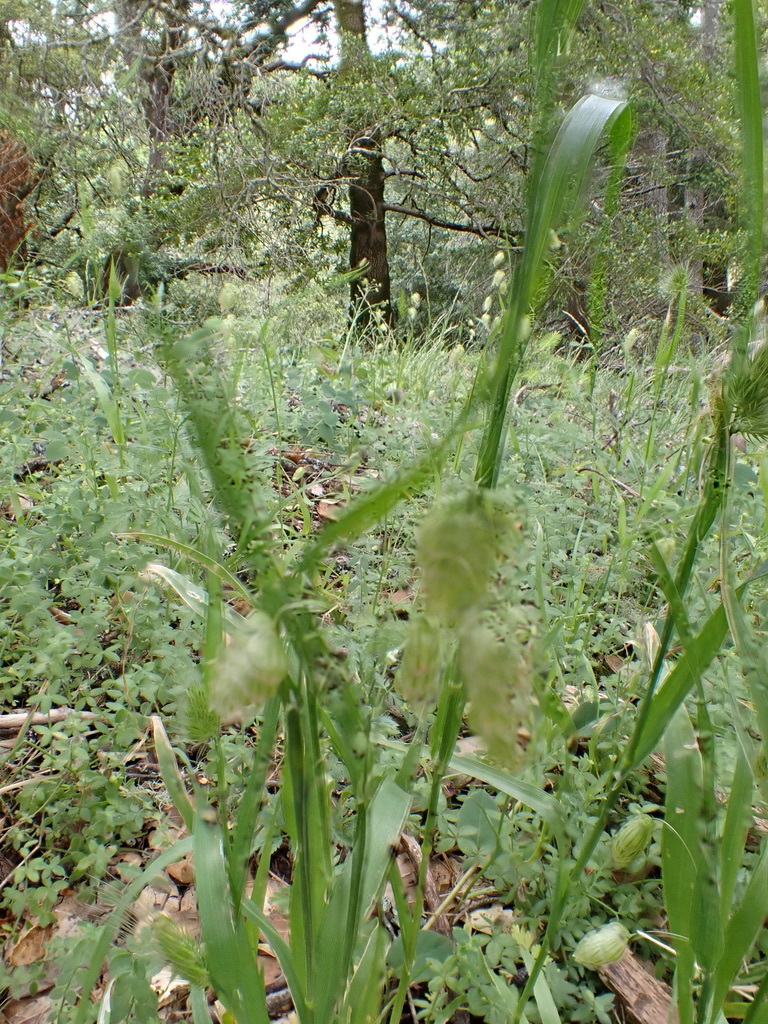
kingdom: Plantae
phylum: Tracheophyta
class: Liliopsida
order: Poales
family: Poaceae
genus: Briza
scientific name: Briza maxima
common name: Big quakinggrass
